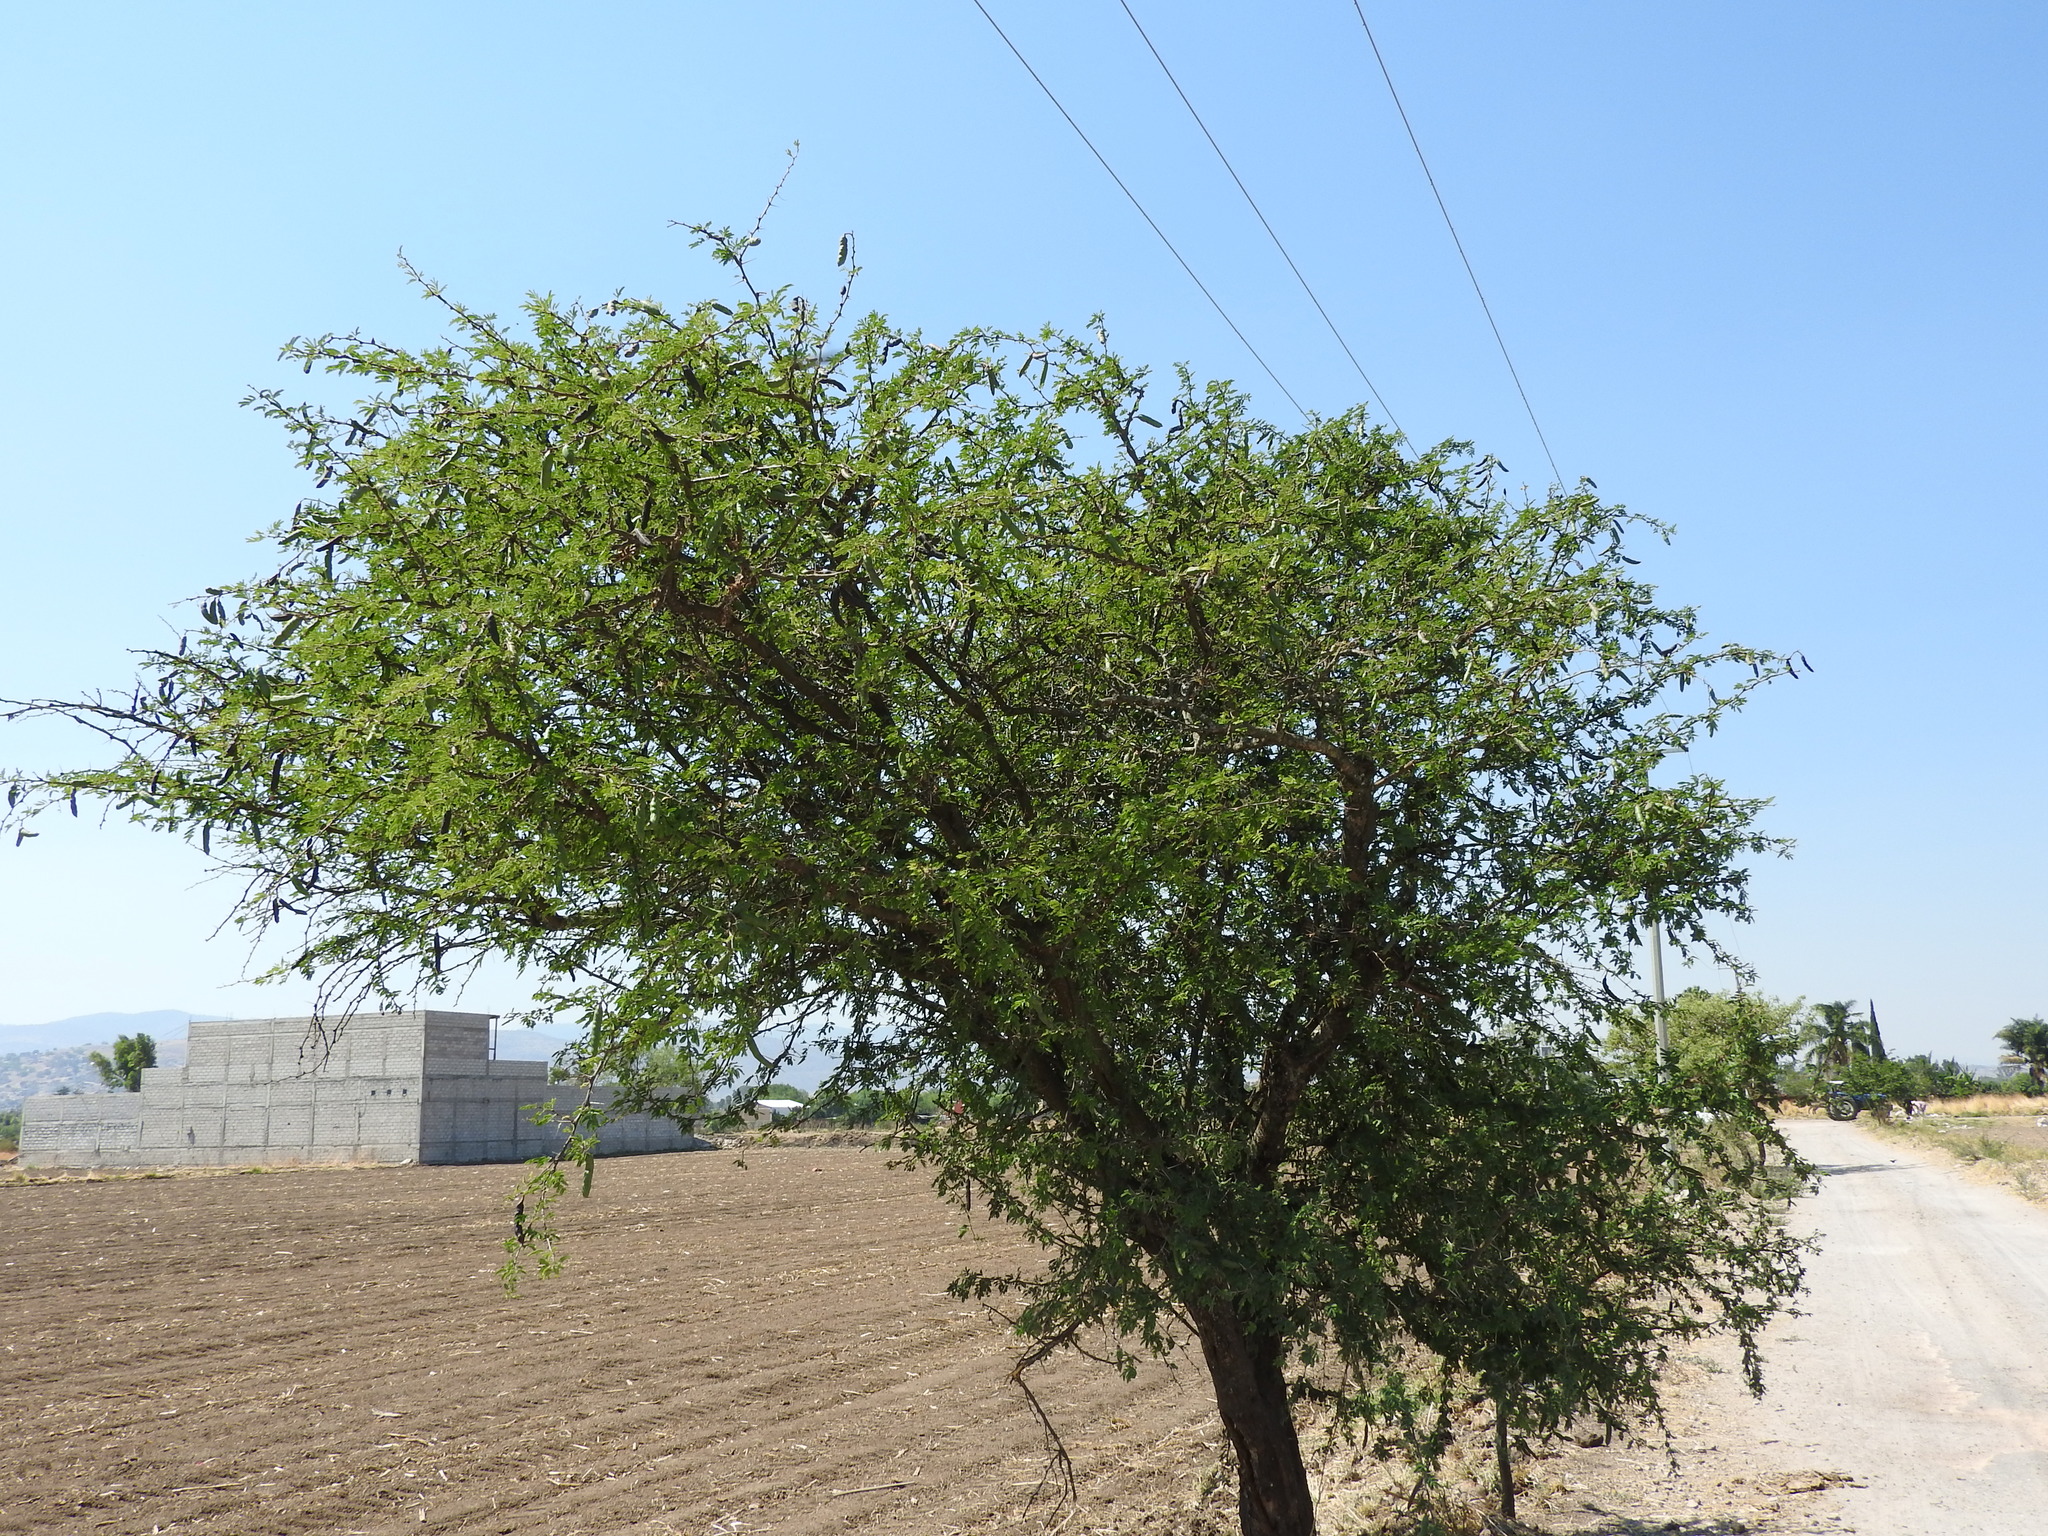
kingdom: Plantae
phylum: Tracheophyta
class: Magnoliopsida
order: Fabales
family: Fabaceae
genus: Vachellia
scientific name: Vachellia farnesiana
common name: Sweet acacia
